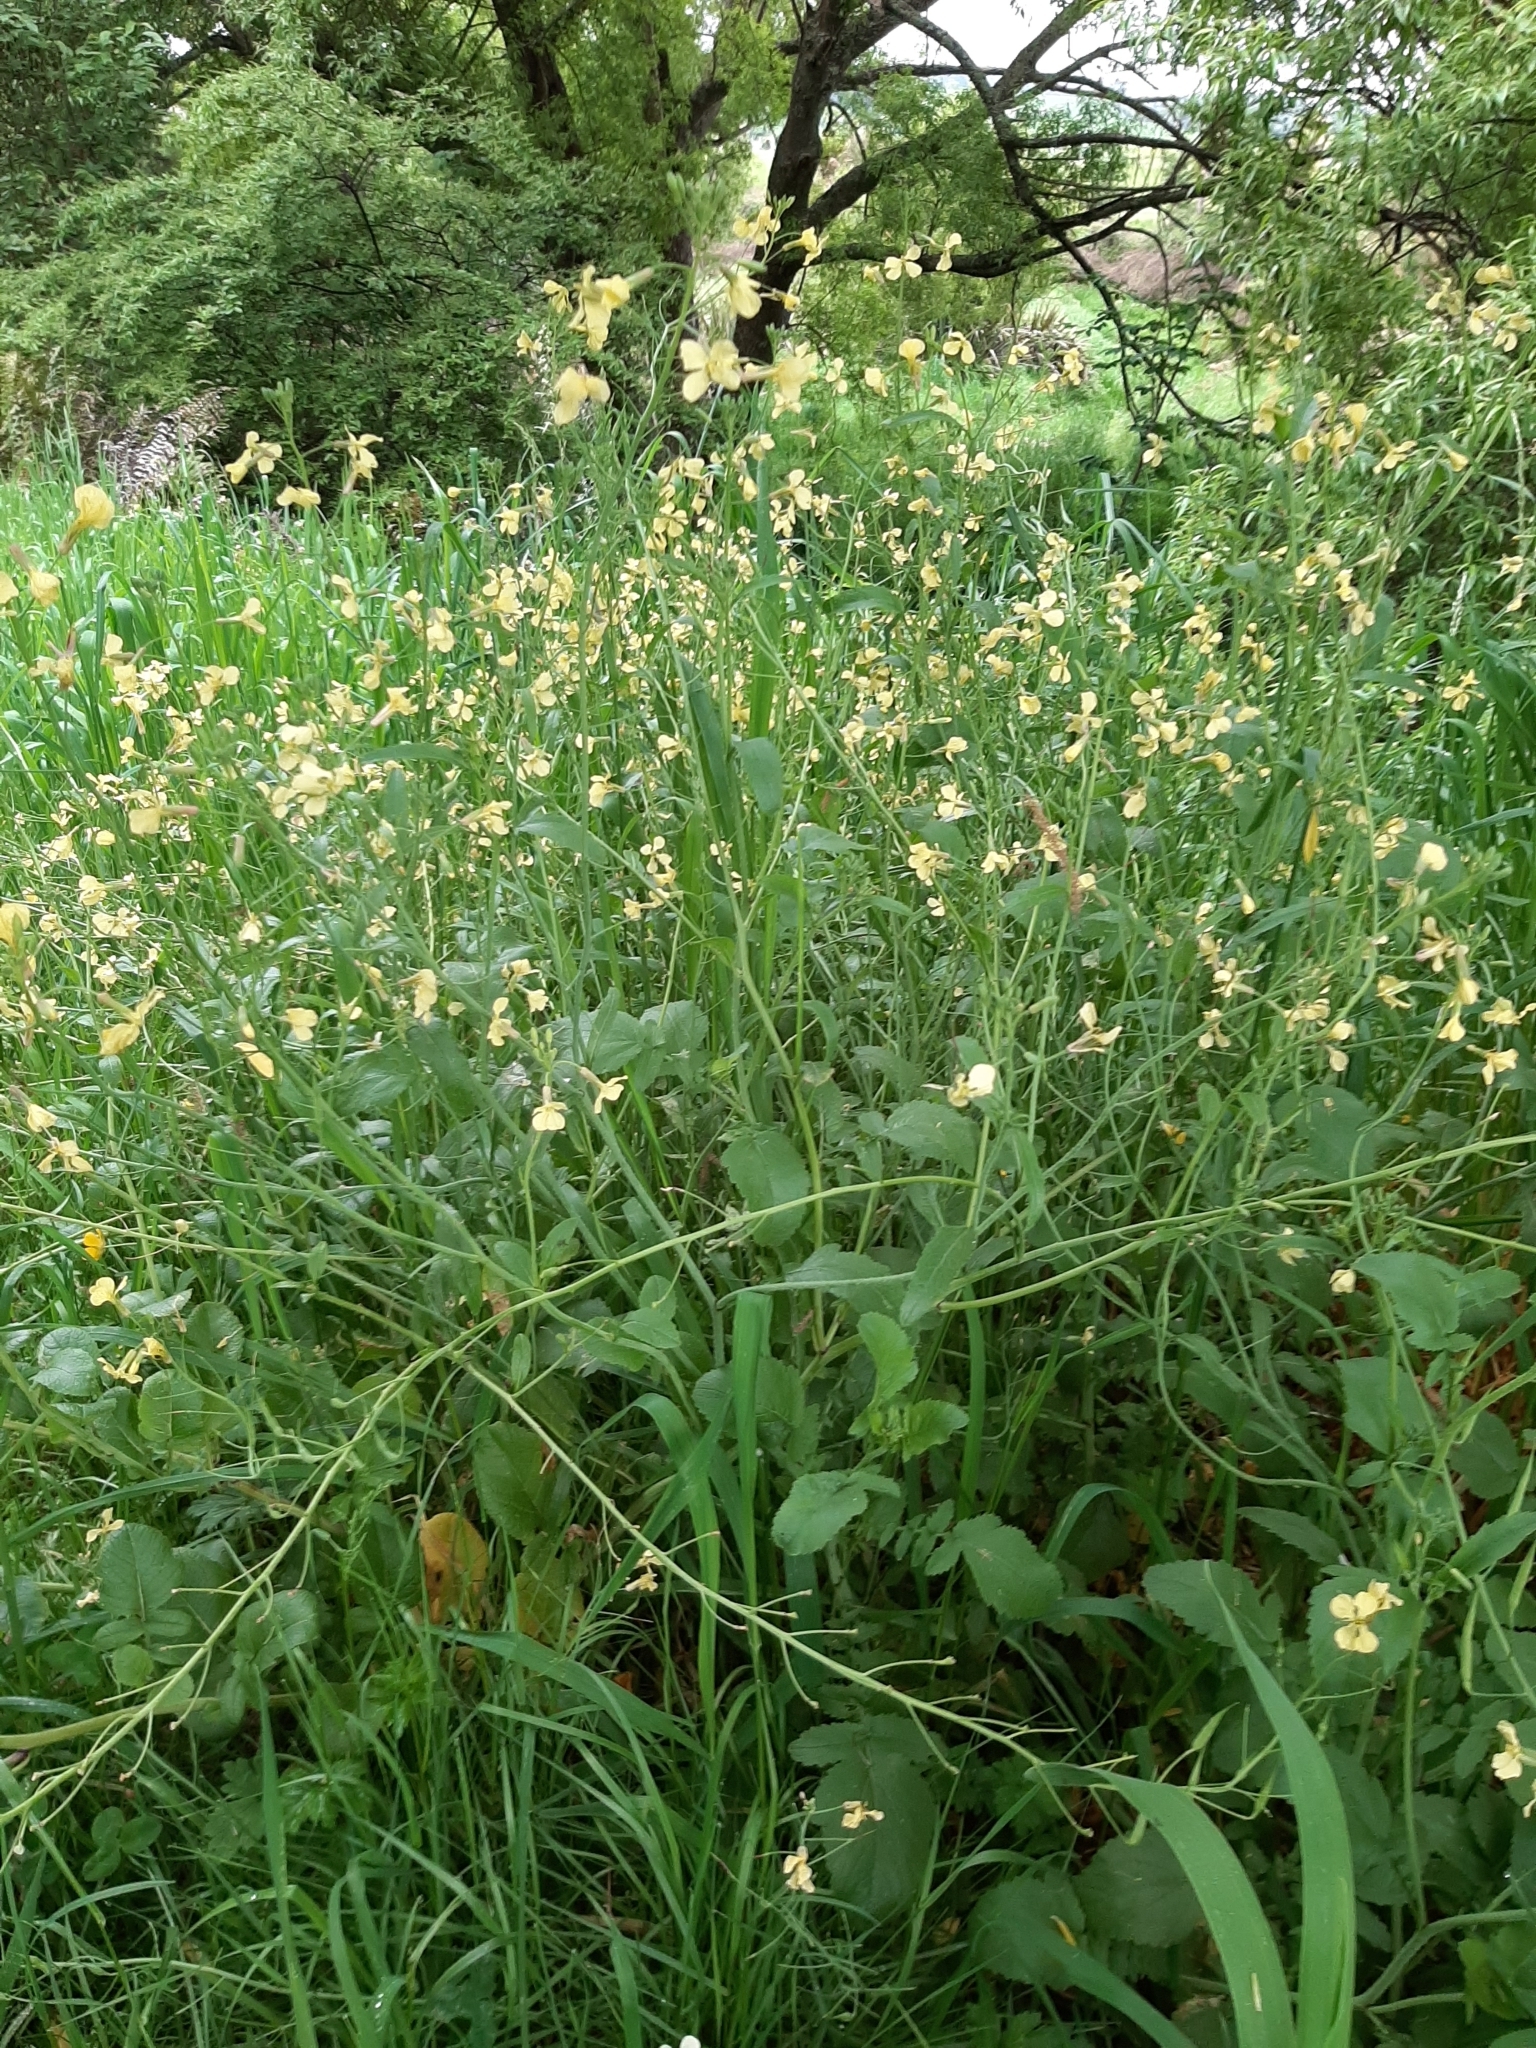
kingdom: Plantae
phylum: Tracheophyta
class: Magnoliopsida
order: Brassicales
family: Brassicaceae
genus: Raphanus
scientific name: Raphanus raphanistrum
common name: Wild radish
